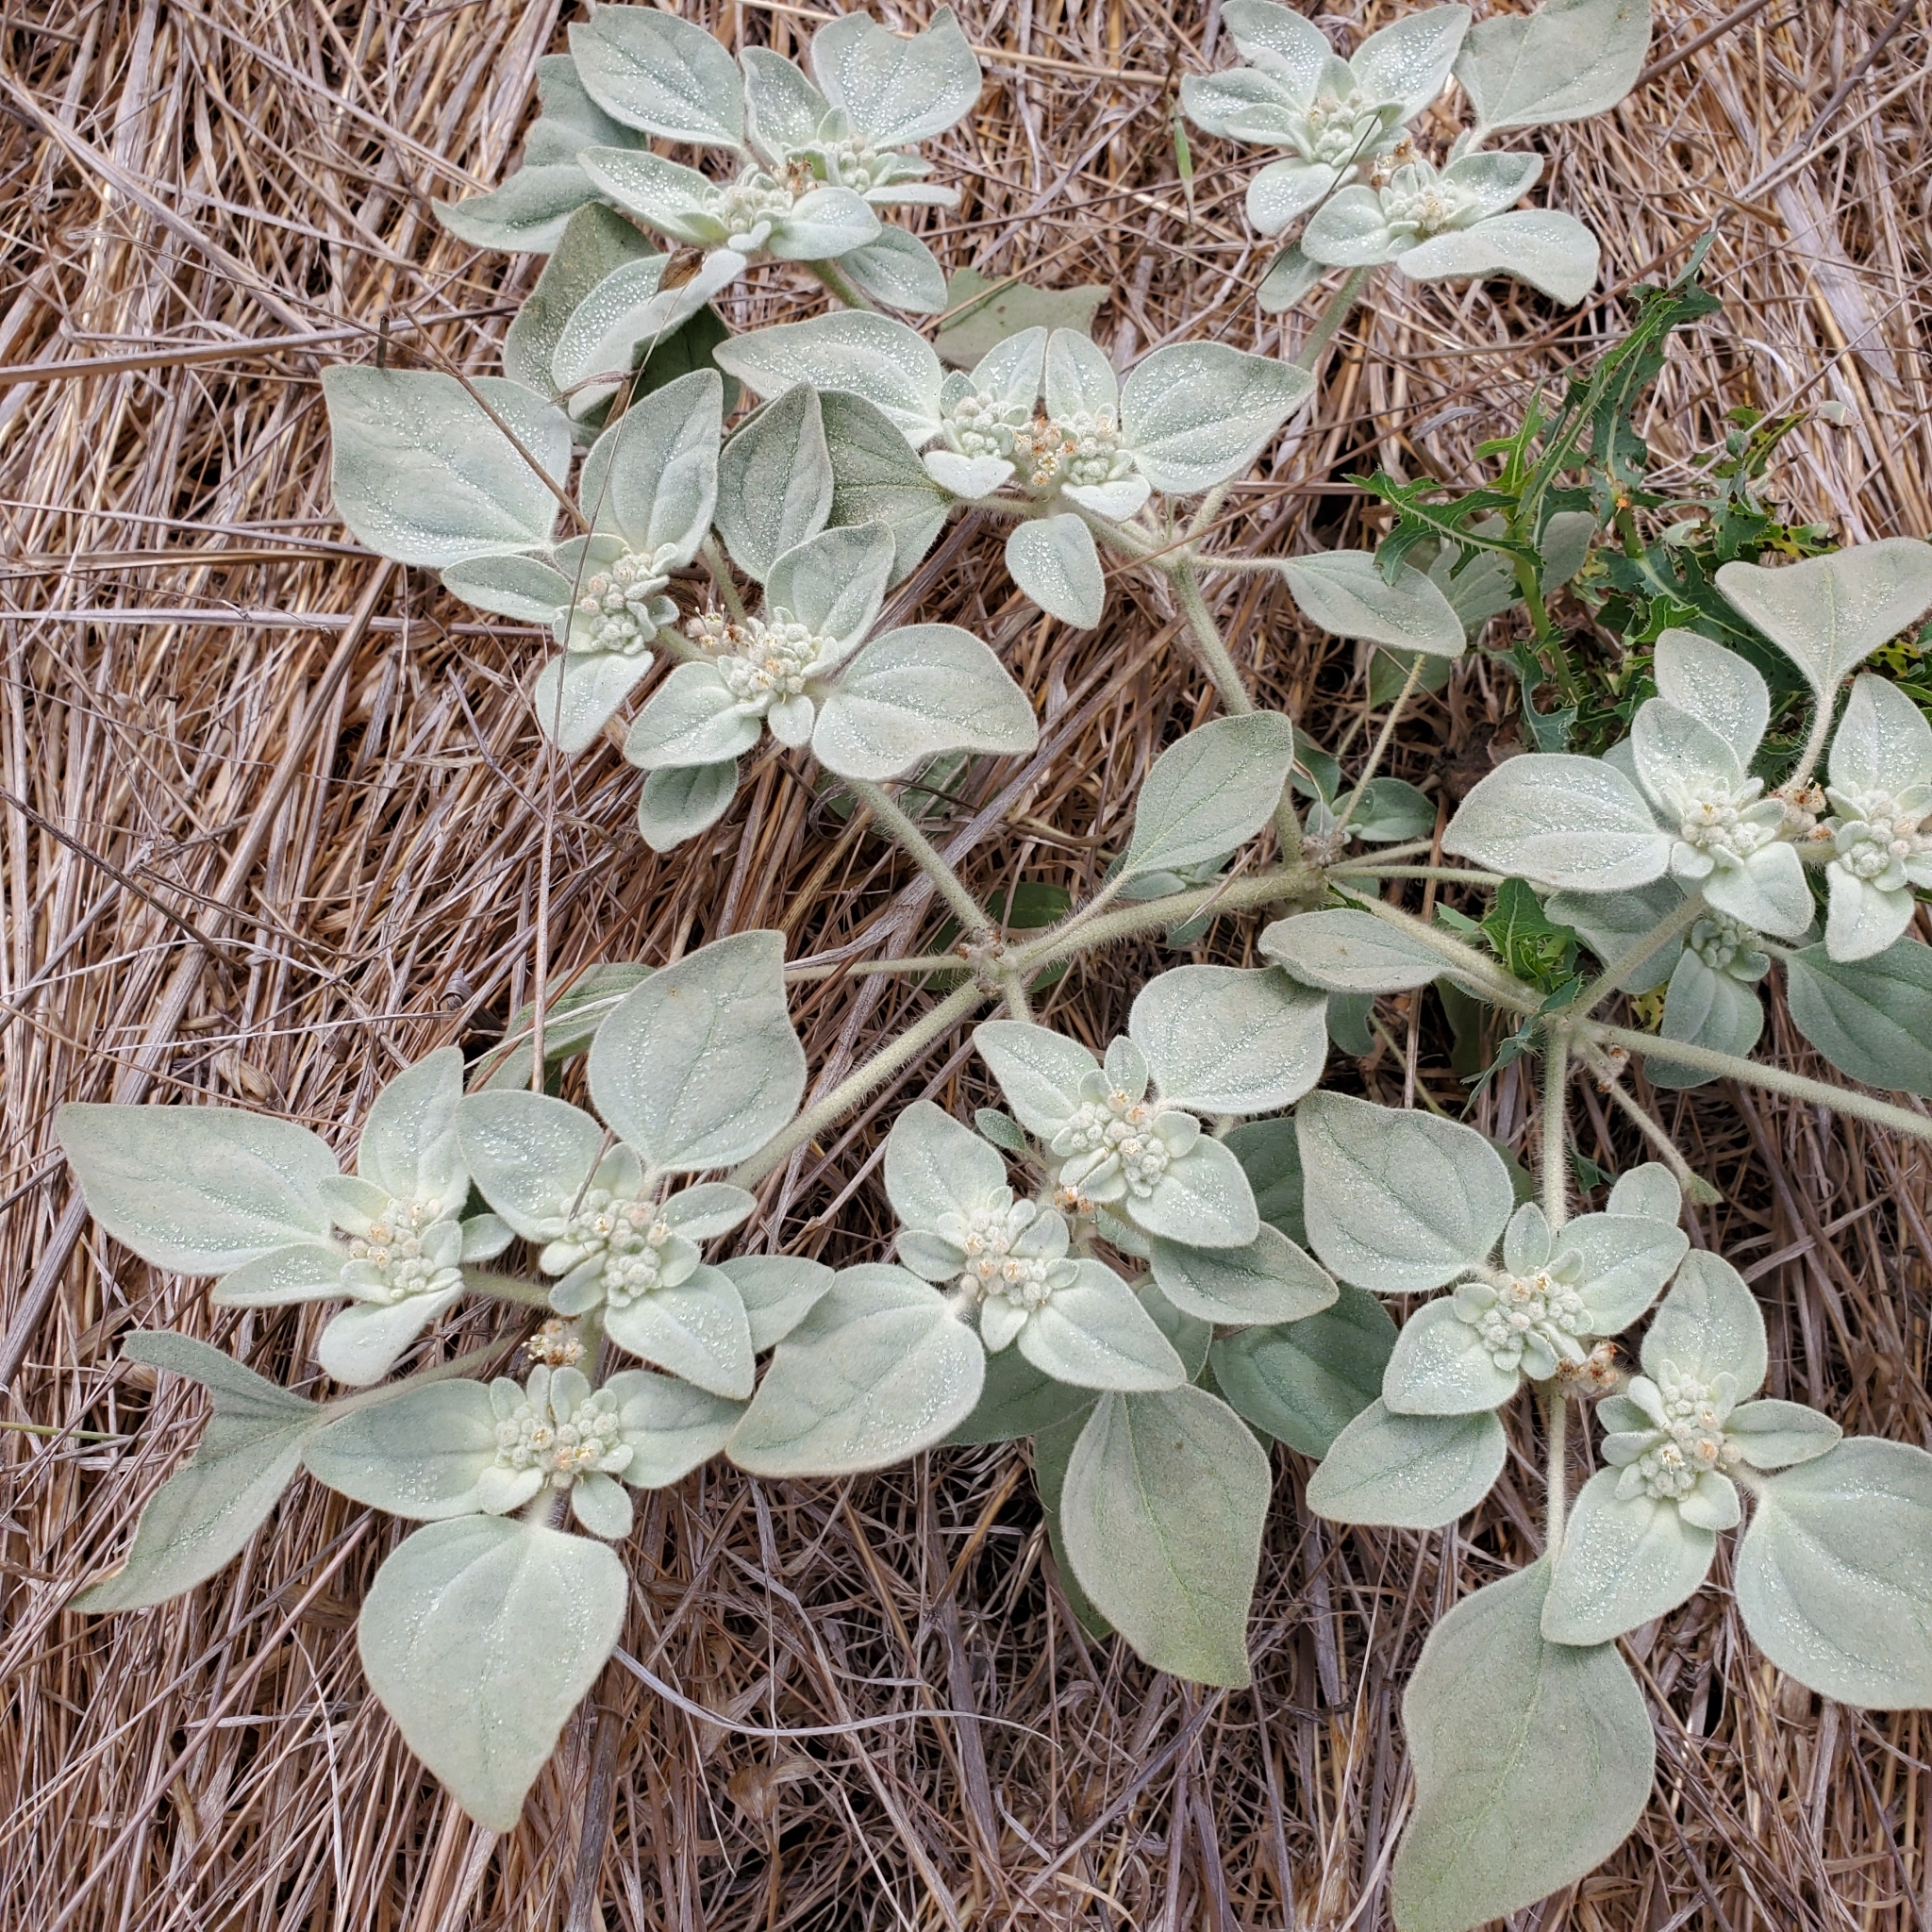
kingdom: Plantae
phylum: Tracheophyta
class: Magnoliopsida
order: Malpighiales
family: Euphorbiaceae
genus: Croton
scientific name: Croton setiger
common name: Dove weed
